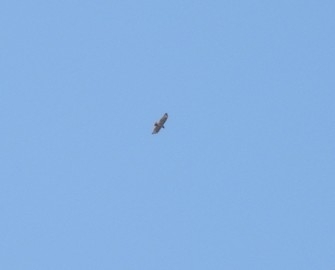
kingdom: Animalia
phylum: Chordata
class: Aves
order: Accipitriformes
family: Accipitridae
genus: Buteo
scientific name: Buteo jamaicensis
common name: Red-tailed hawk
